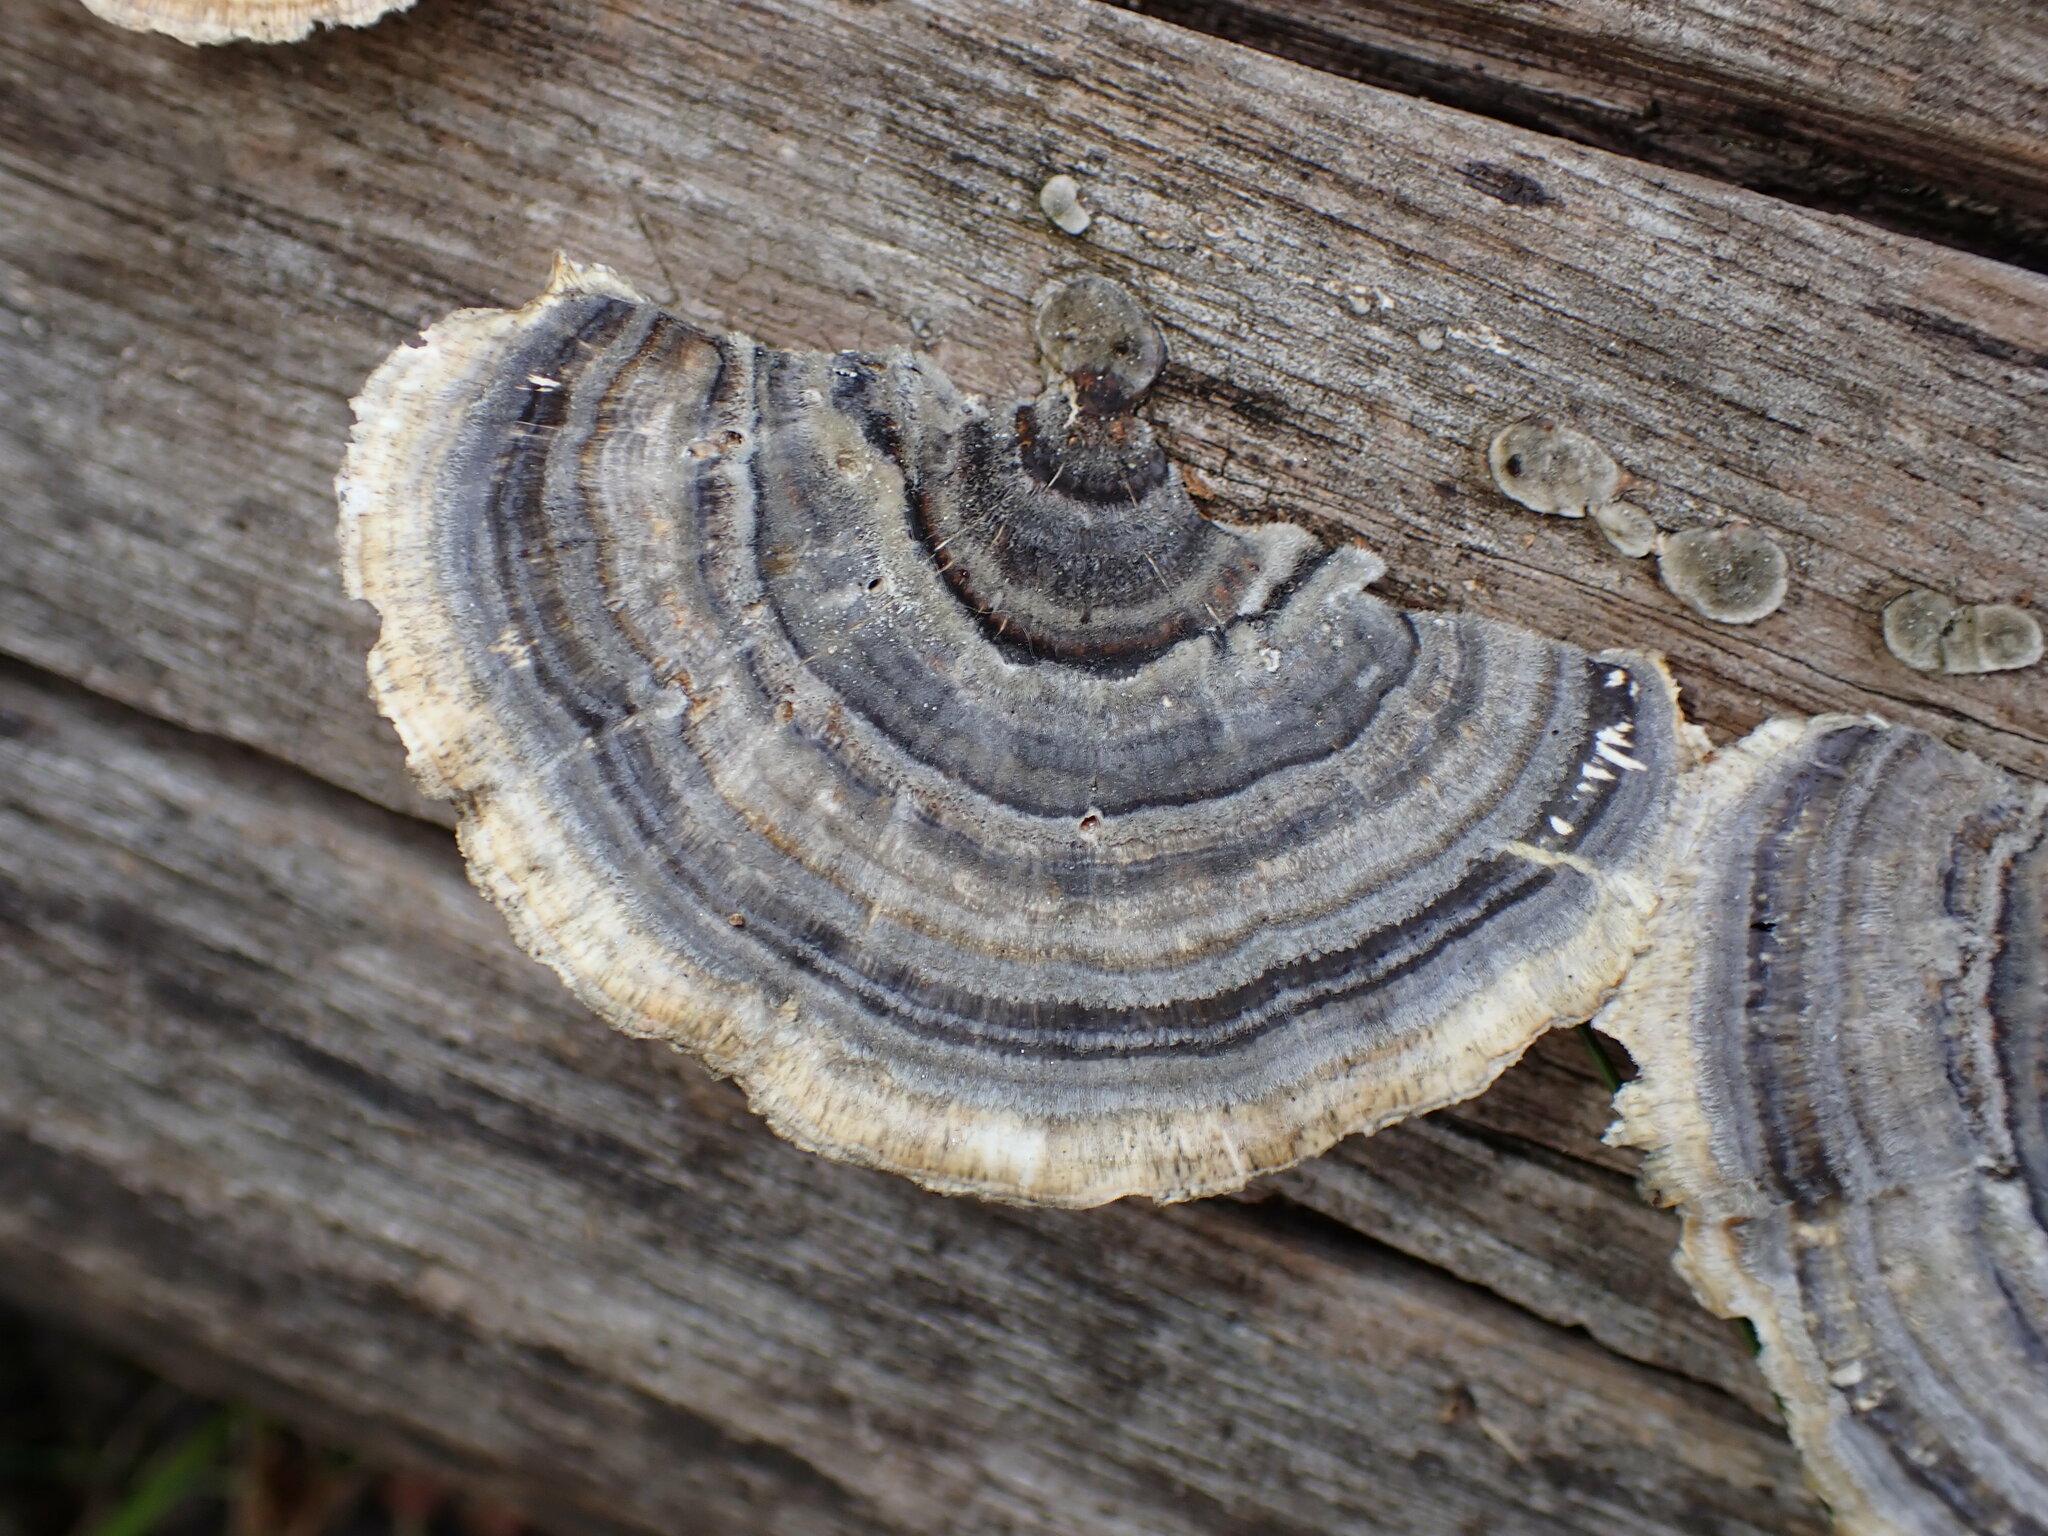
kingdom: Fungi
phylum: Basidiomycota
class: Agaricomycetes
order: Polyporales
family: Polyporaceae
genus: Trametes
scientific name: Trametes versicolor
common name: Turkeytail
